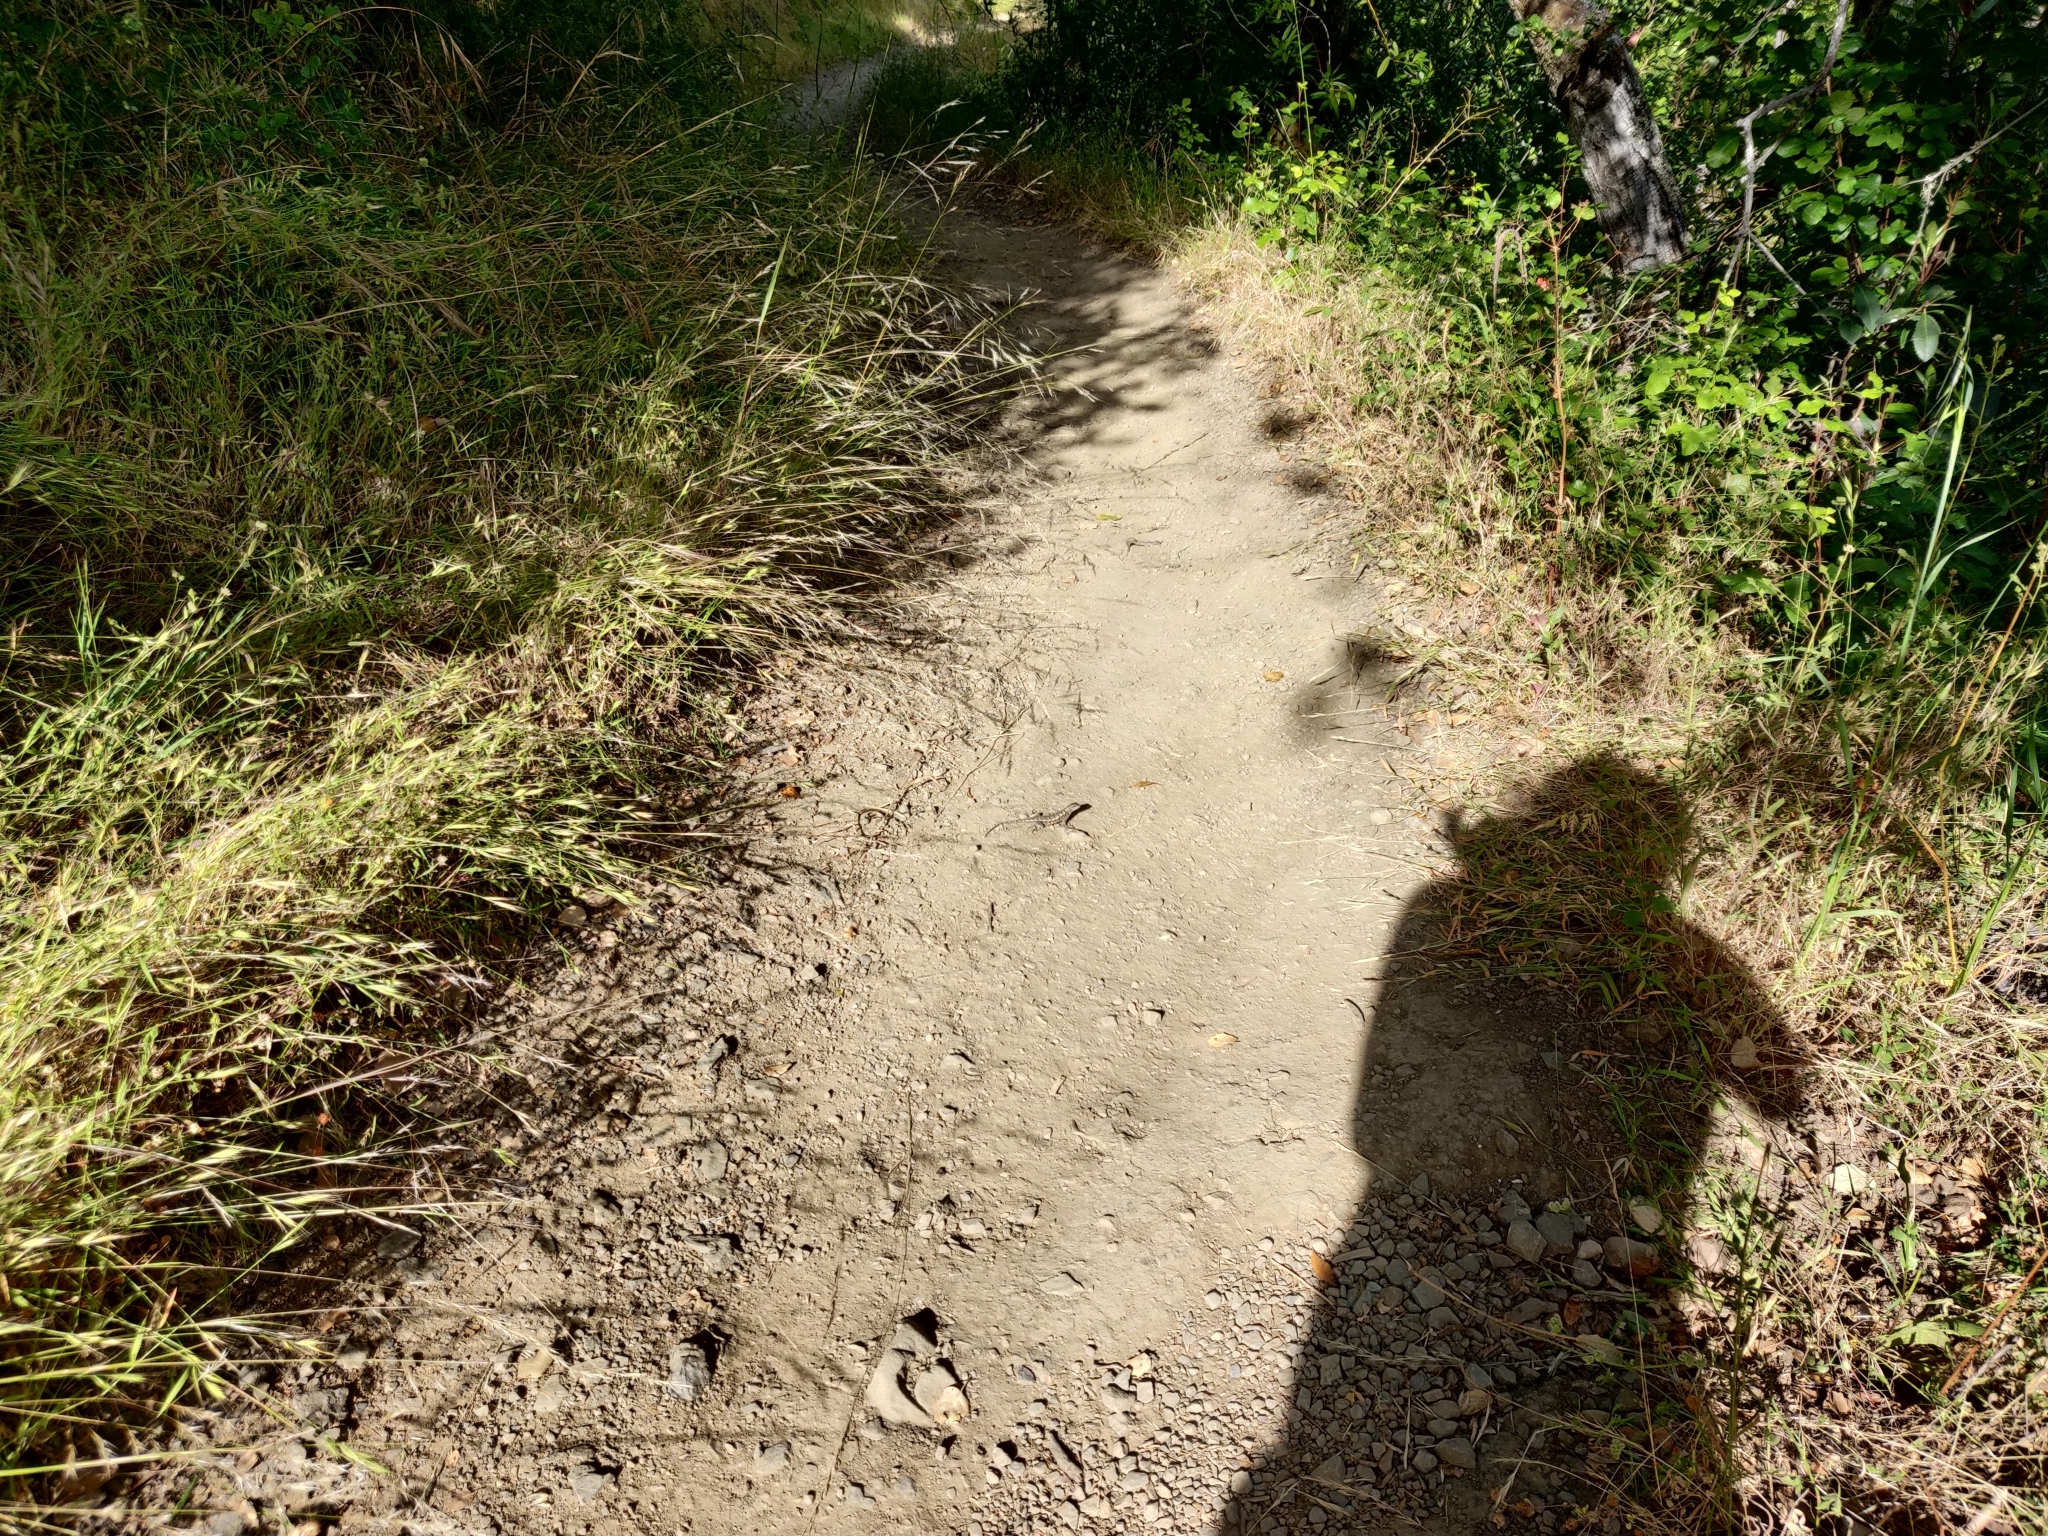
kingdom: Animalia
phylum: Chordata
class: Squamata
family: Phrynosomatidae
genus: Sceloporus
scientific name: Sceloporus occidentalis
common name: Western fence lizard
